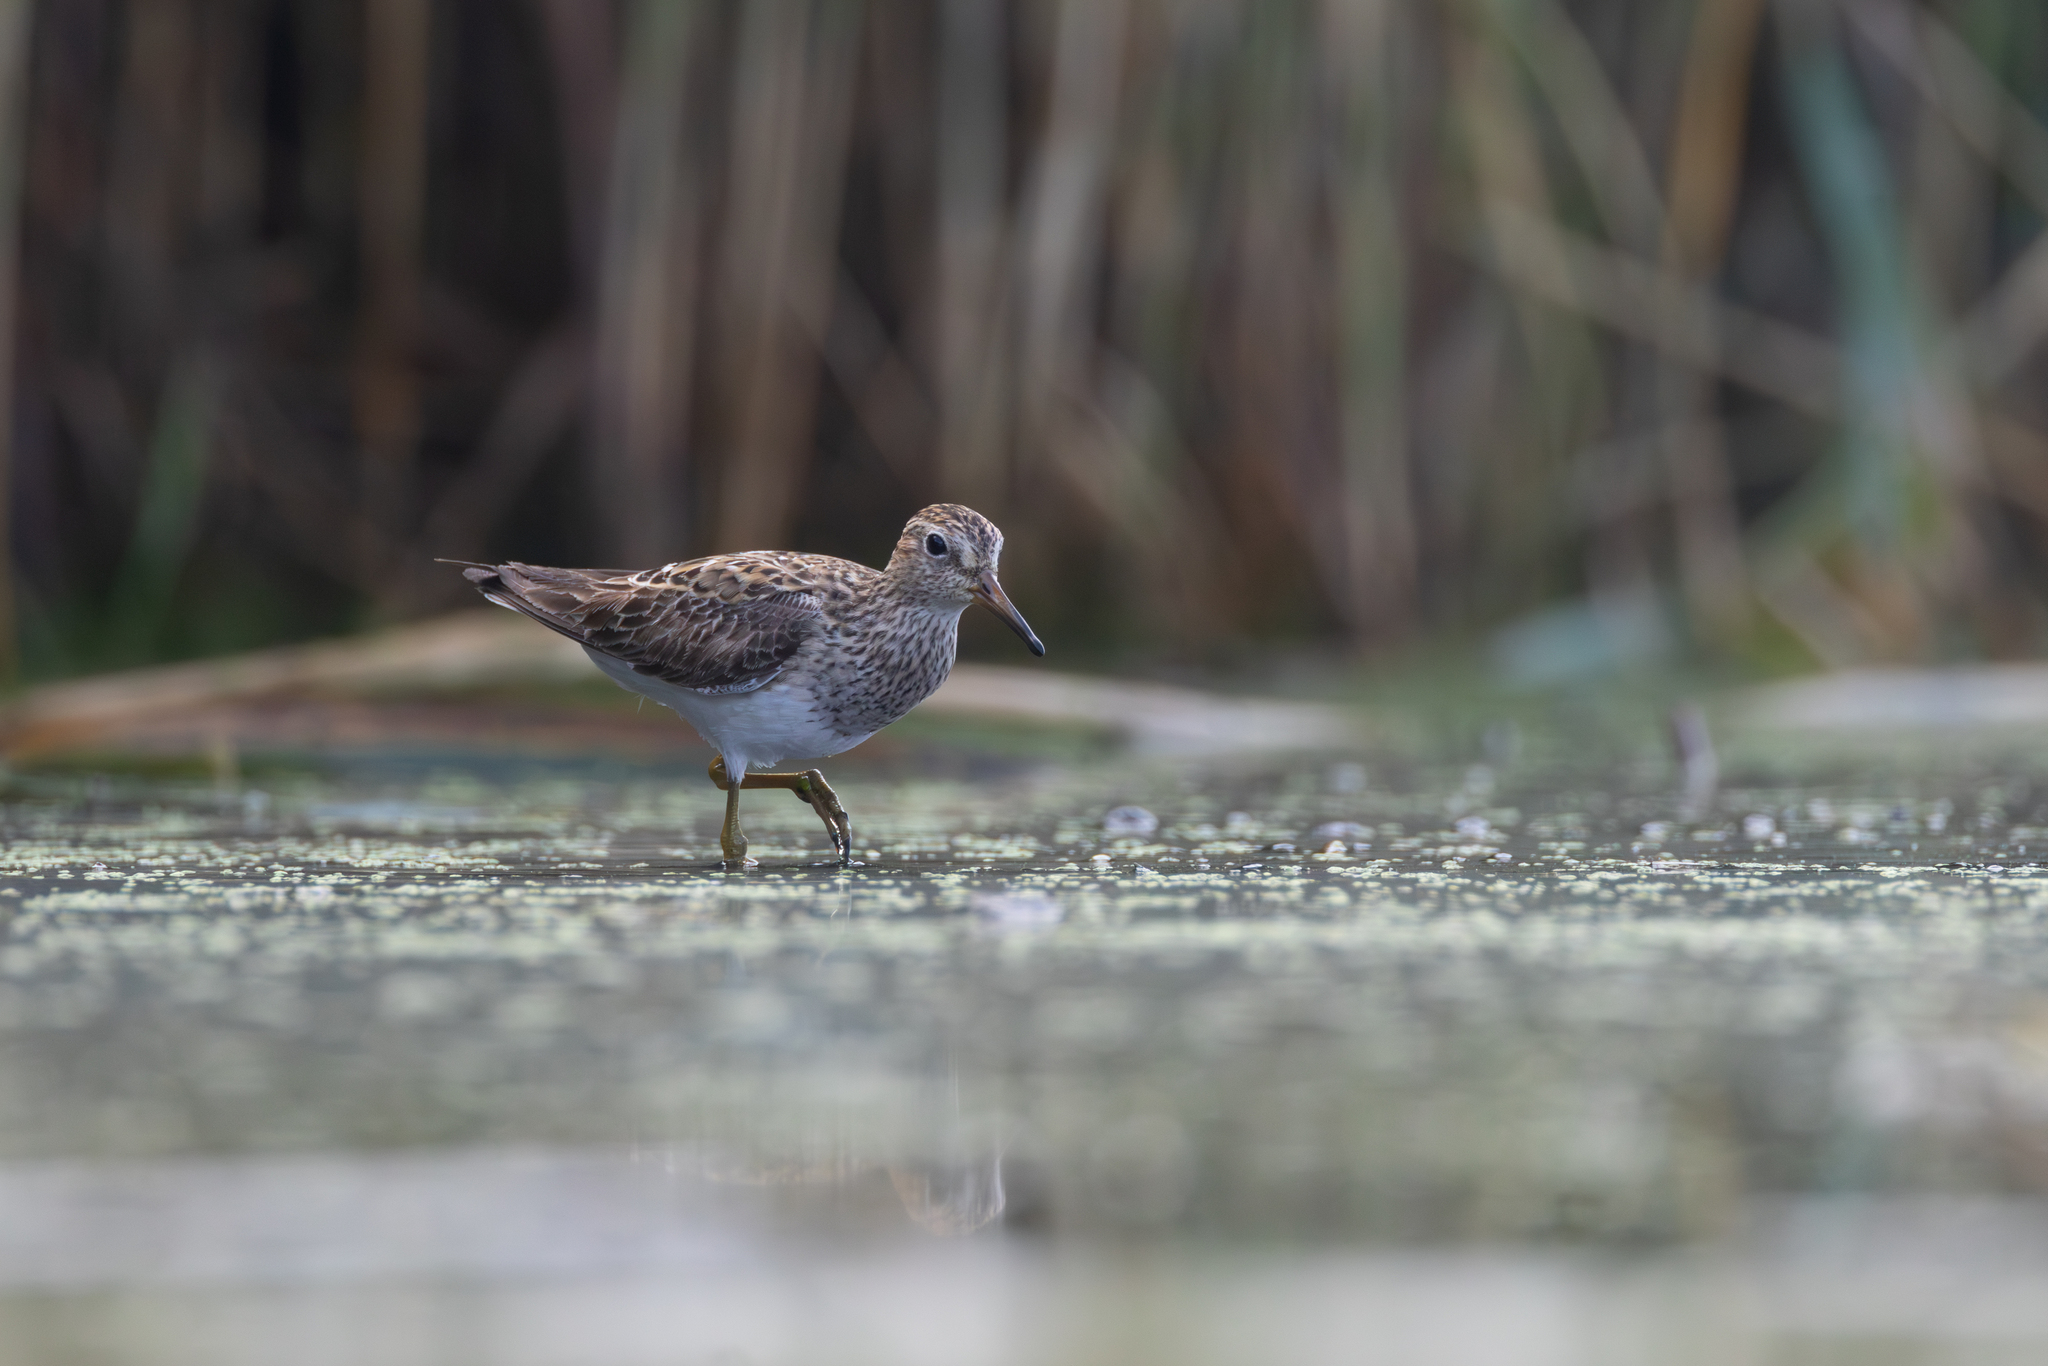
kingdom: Animalia
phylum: Chordata
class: Aves
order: Charadriiformes
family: Scolopacidae
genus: Calidris
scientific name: Calidris melanotos
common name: Pectoral sandpiper
